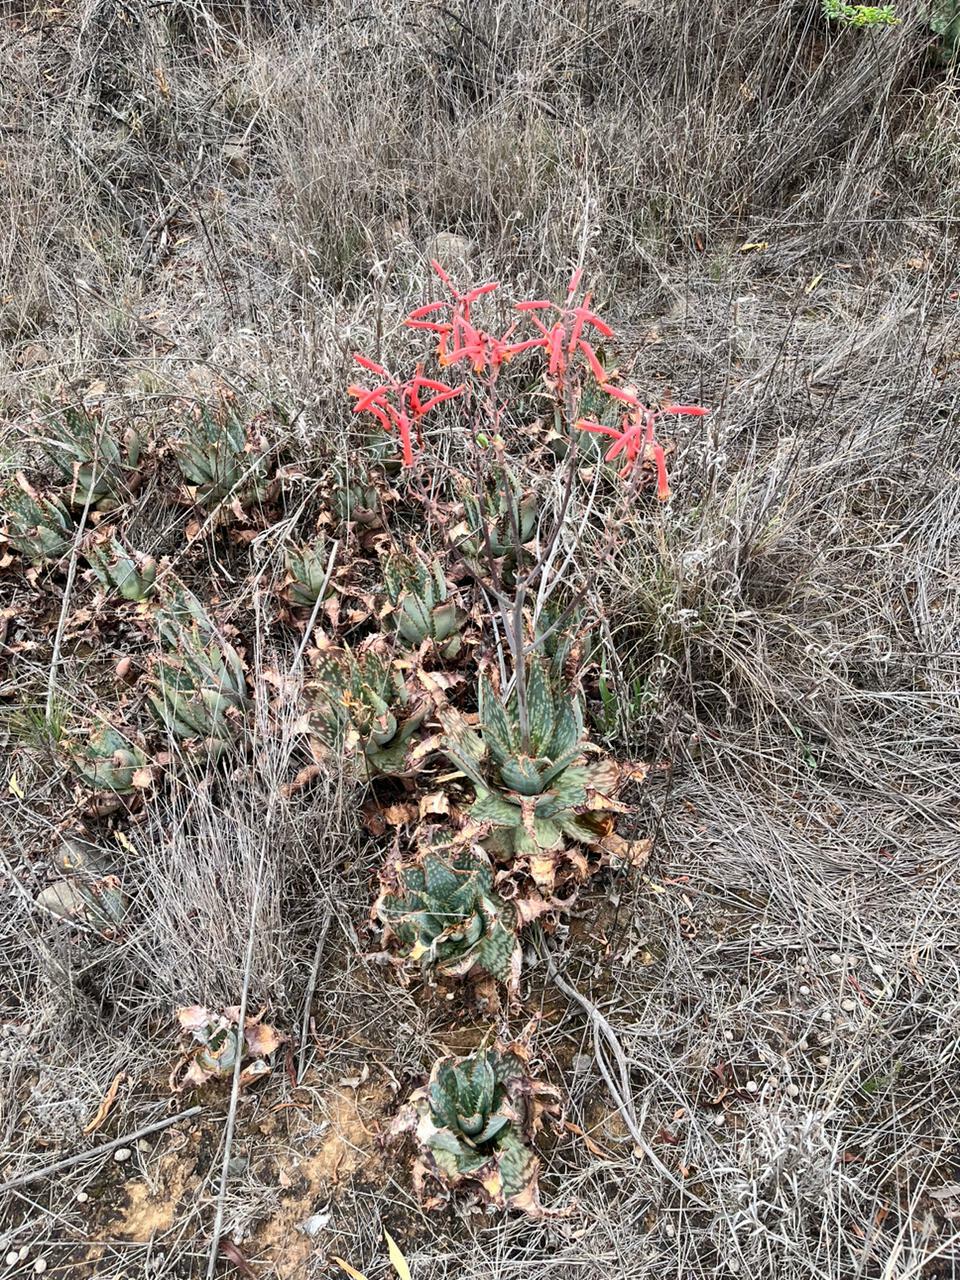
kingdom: Plantae
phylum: Tracheophyta
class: Liliopsida
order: Asparagales
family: Asphodelaceae
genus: Aloe
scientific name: Aloe grandidentata
